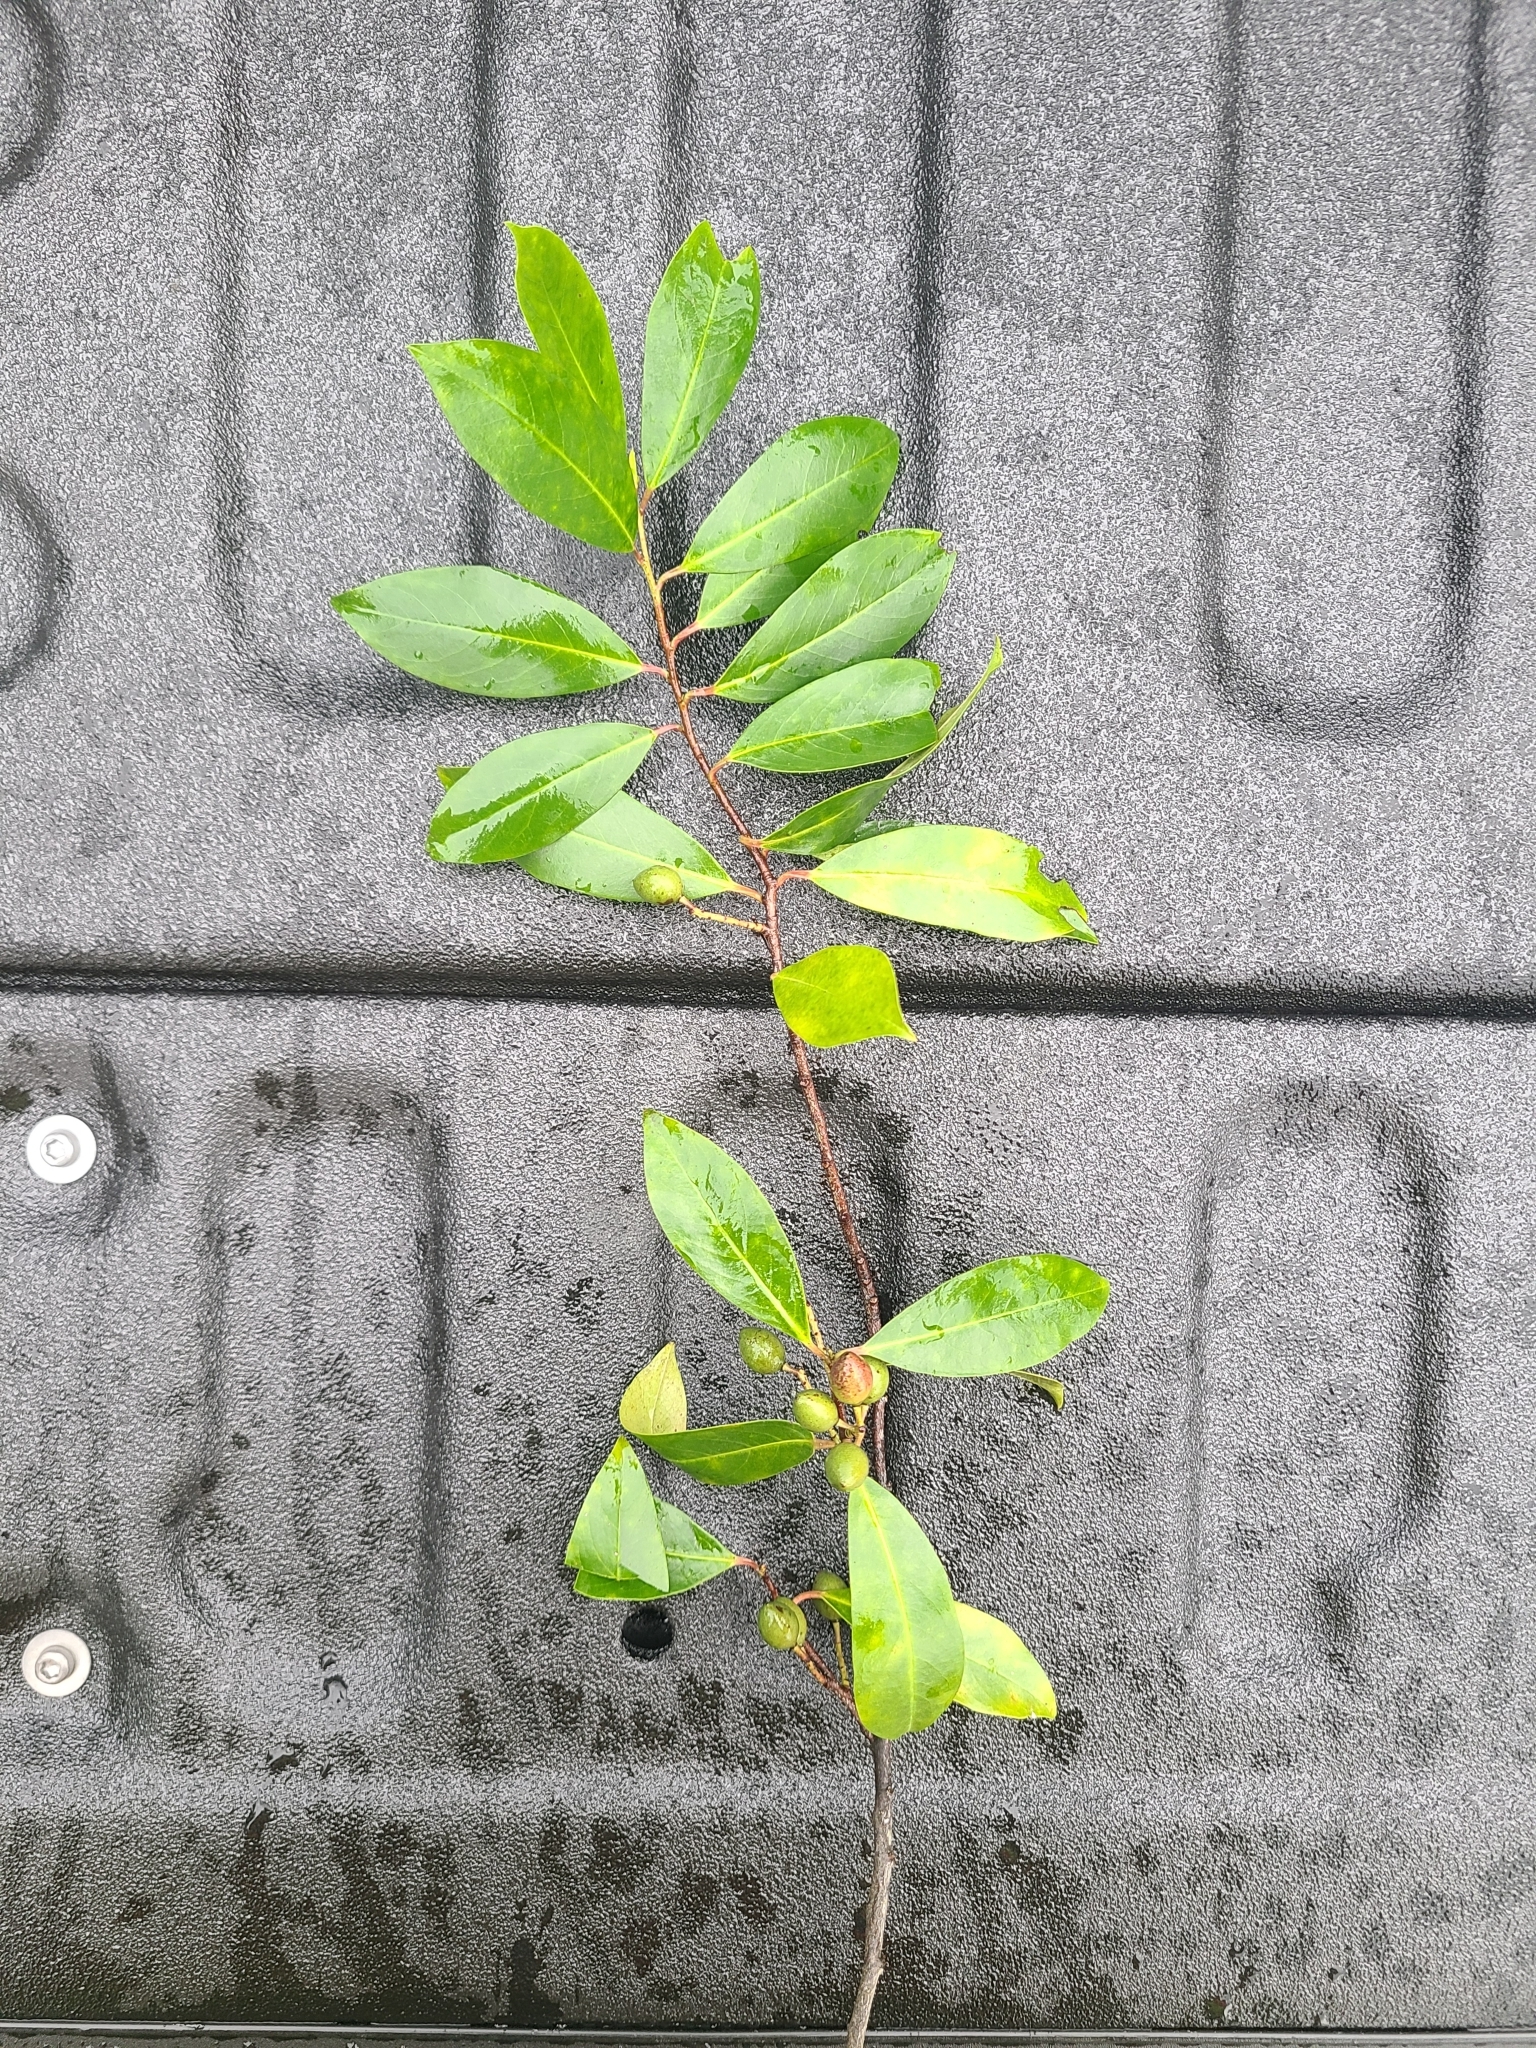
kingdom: Plantae
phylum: Tracheophyta
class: Magnoliopsida
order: Rosales
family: Rosaceae
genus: Prunus
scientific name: Prunus caroliniana
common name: Carolina laurel cherry
